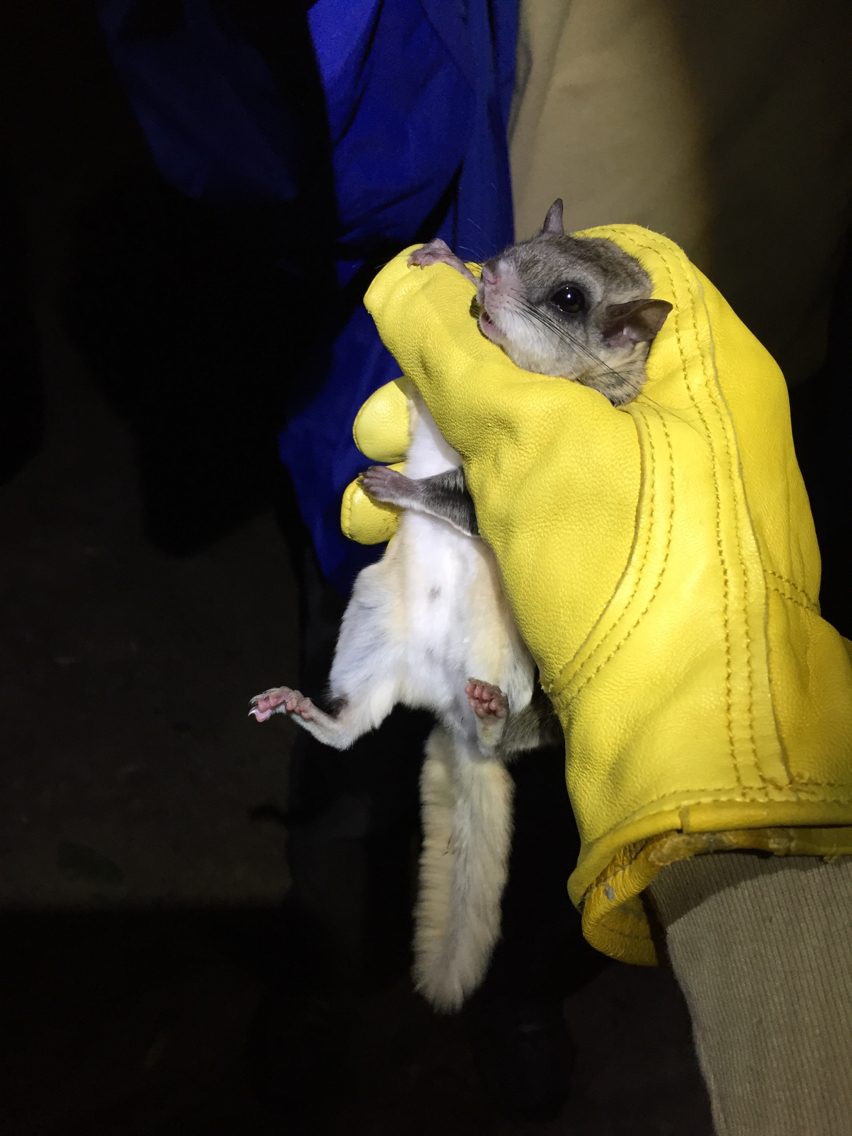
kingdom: Animalia
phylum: Chordata
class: Mammalia
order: Rodentia
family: Sciuridae
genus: Glaucomys
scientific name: Glaucomys volans
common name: Southern flying squirrel
